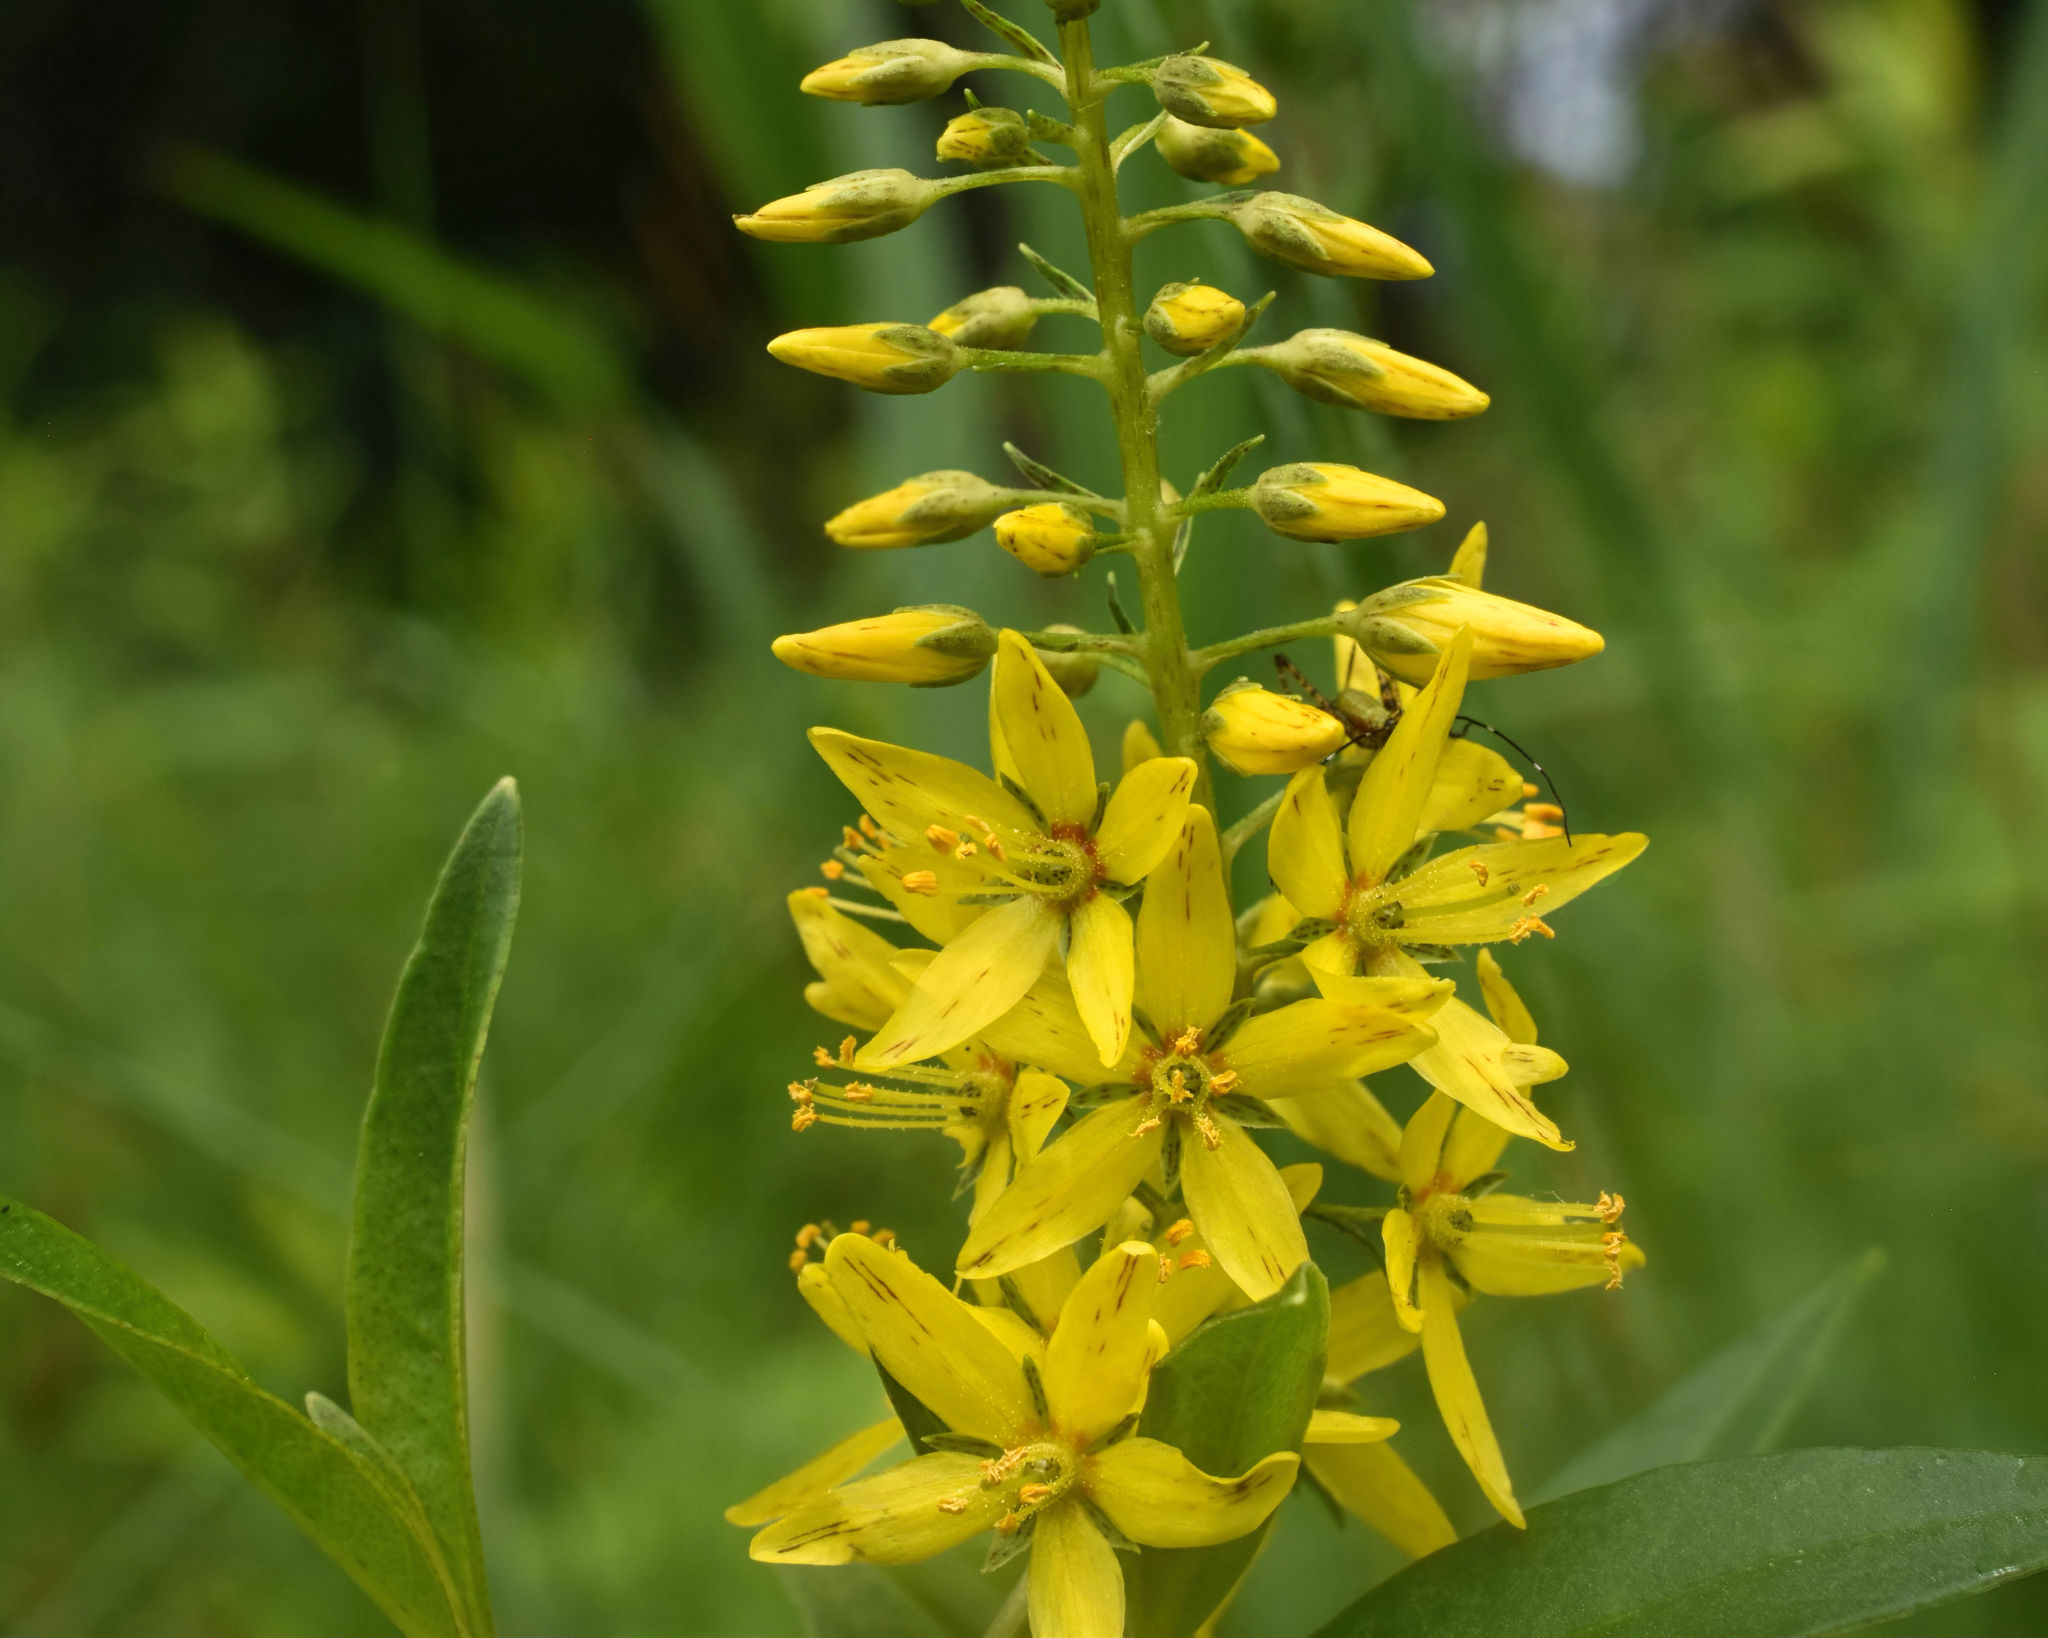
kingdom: Plantae
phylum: Tracheophyta
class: Magnoliopsida
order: Ericales
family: Primulaceae
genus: Lysimachia
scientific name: Lysimachia terrestris
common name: Lake loosestrife
